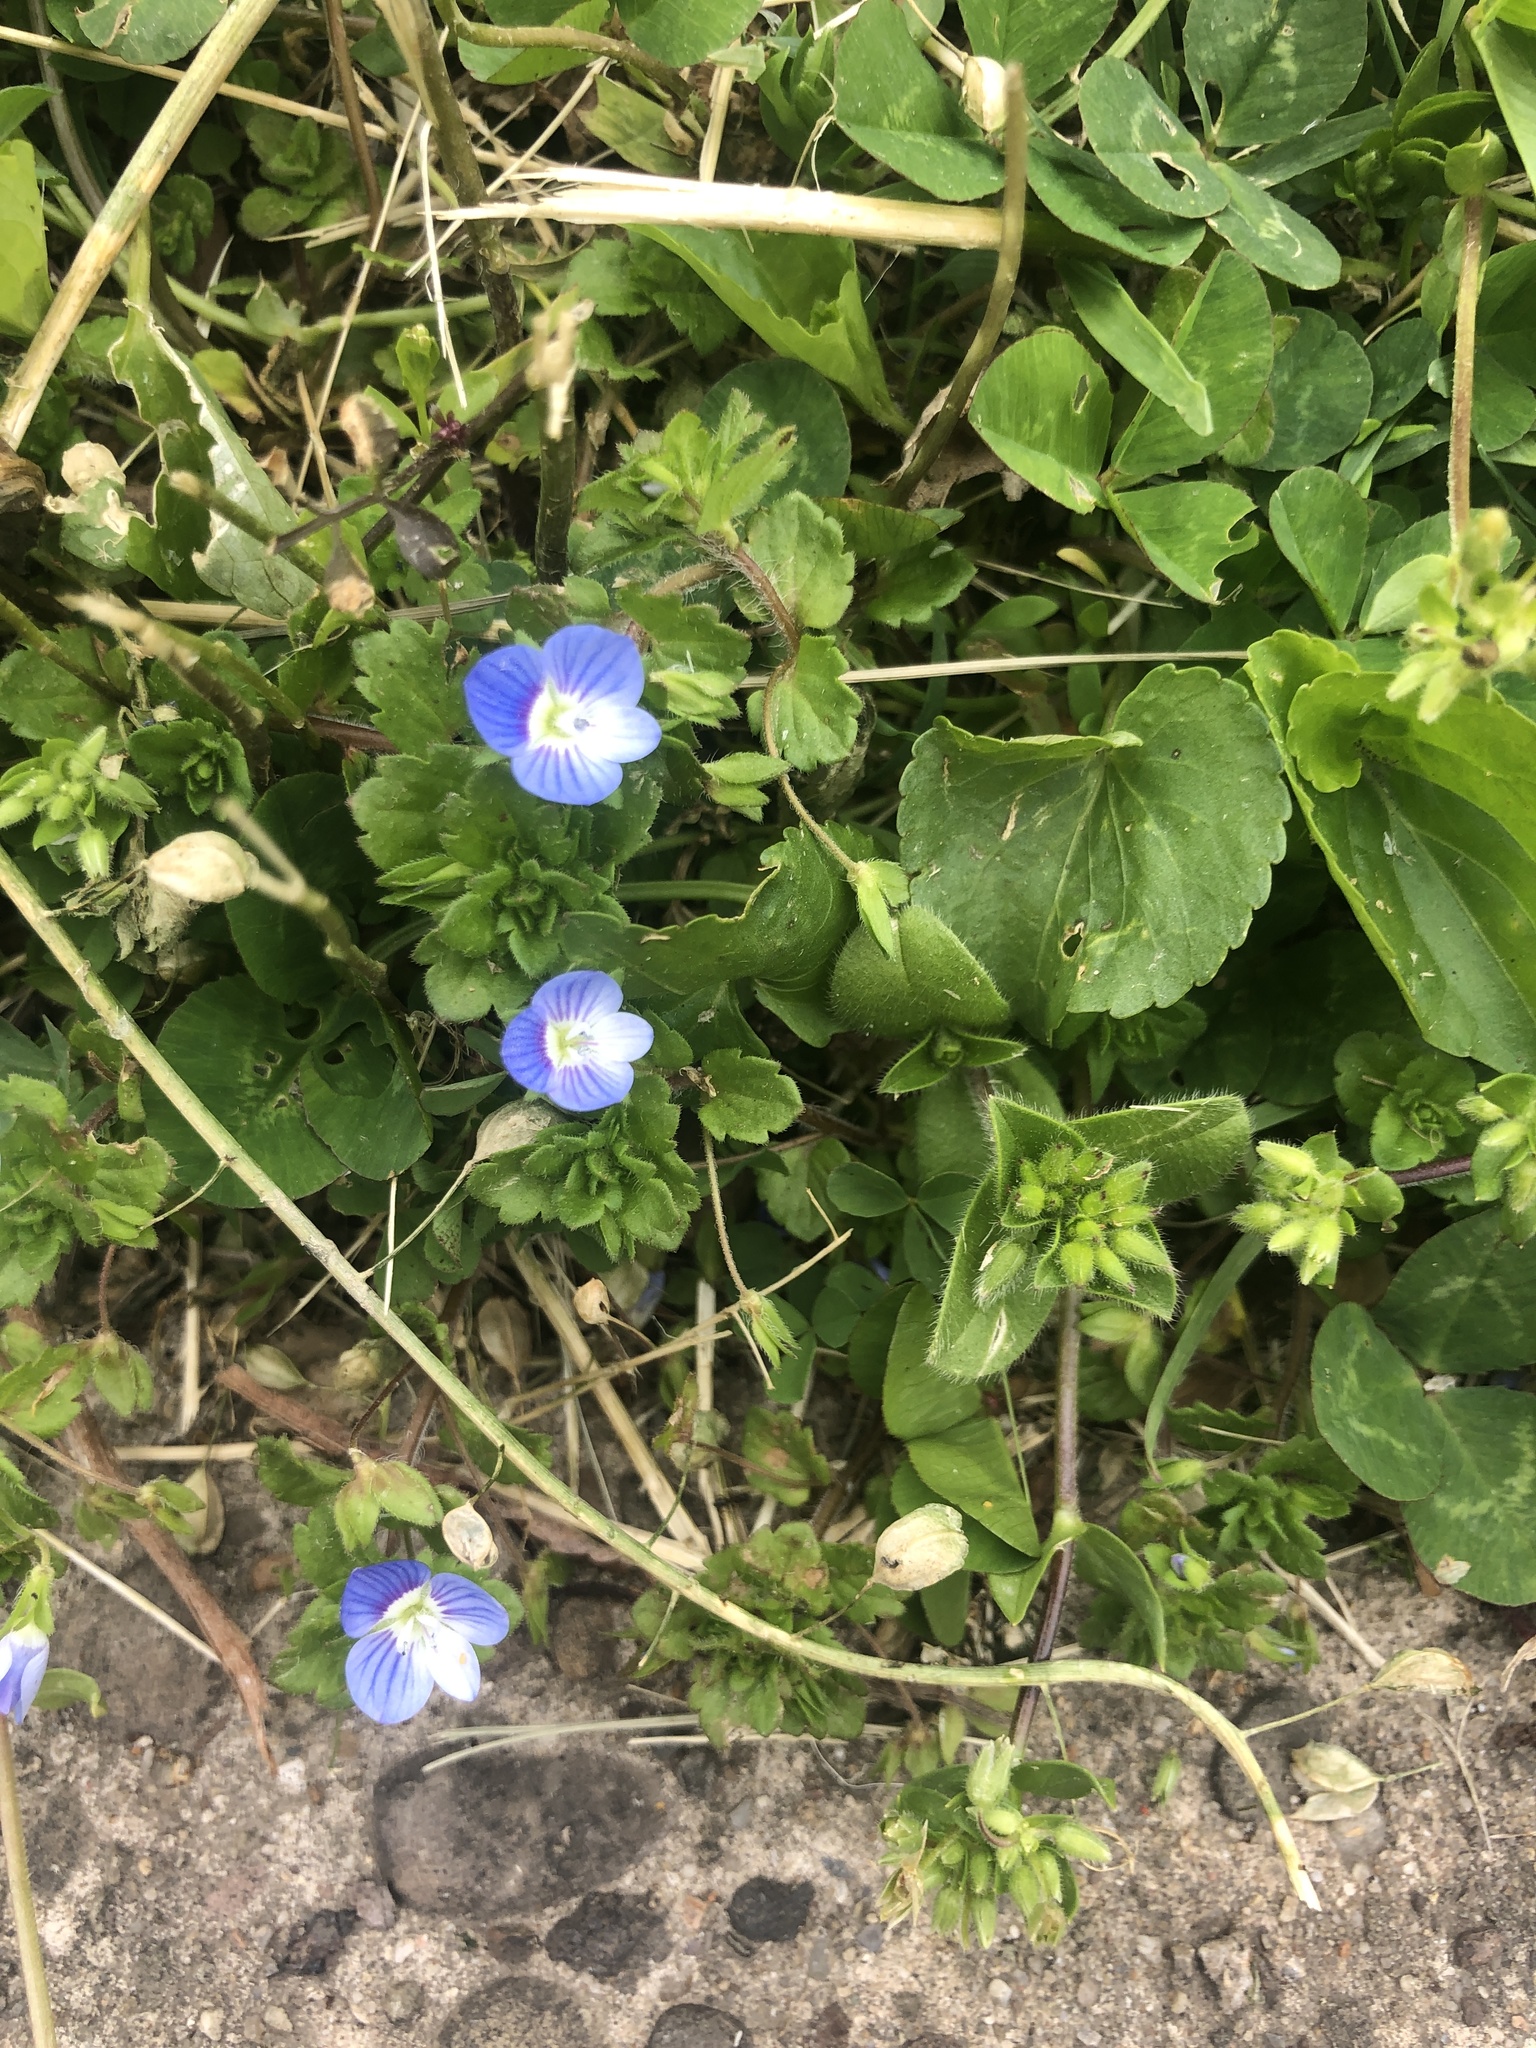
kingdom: Plantae
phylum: Tracheophyta
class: Magnoliopsida
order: Lamiales
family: Plantaginaceae
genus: Veronica
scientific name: Veronica persica
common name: Common field-speedwell
